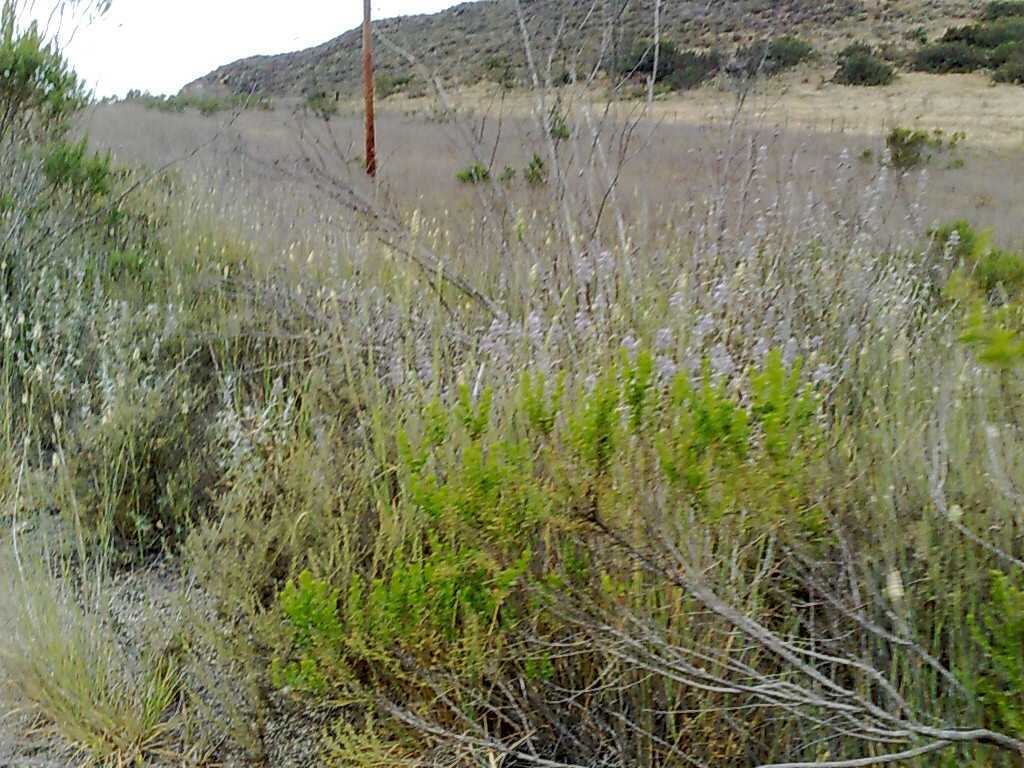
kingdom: Plantae
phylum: Tracheophyta
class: Magnoliopsida
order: Asterales
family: Asteraceae
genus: Baccharis
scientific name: Baccharis pilularis
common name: Coyotebrush
